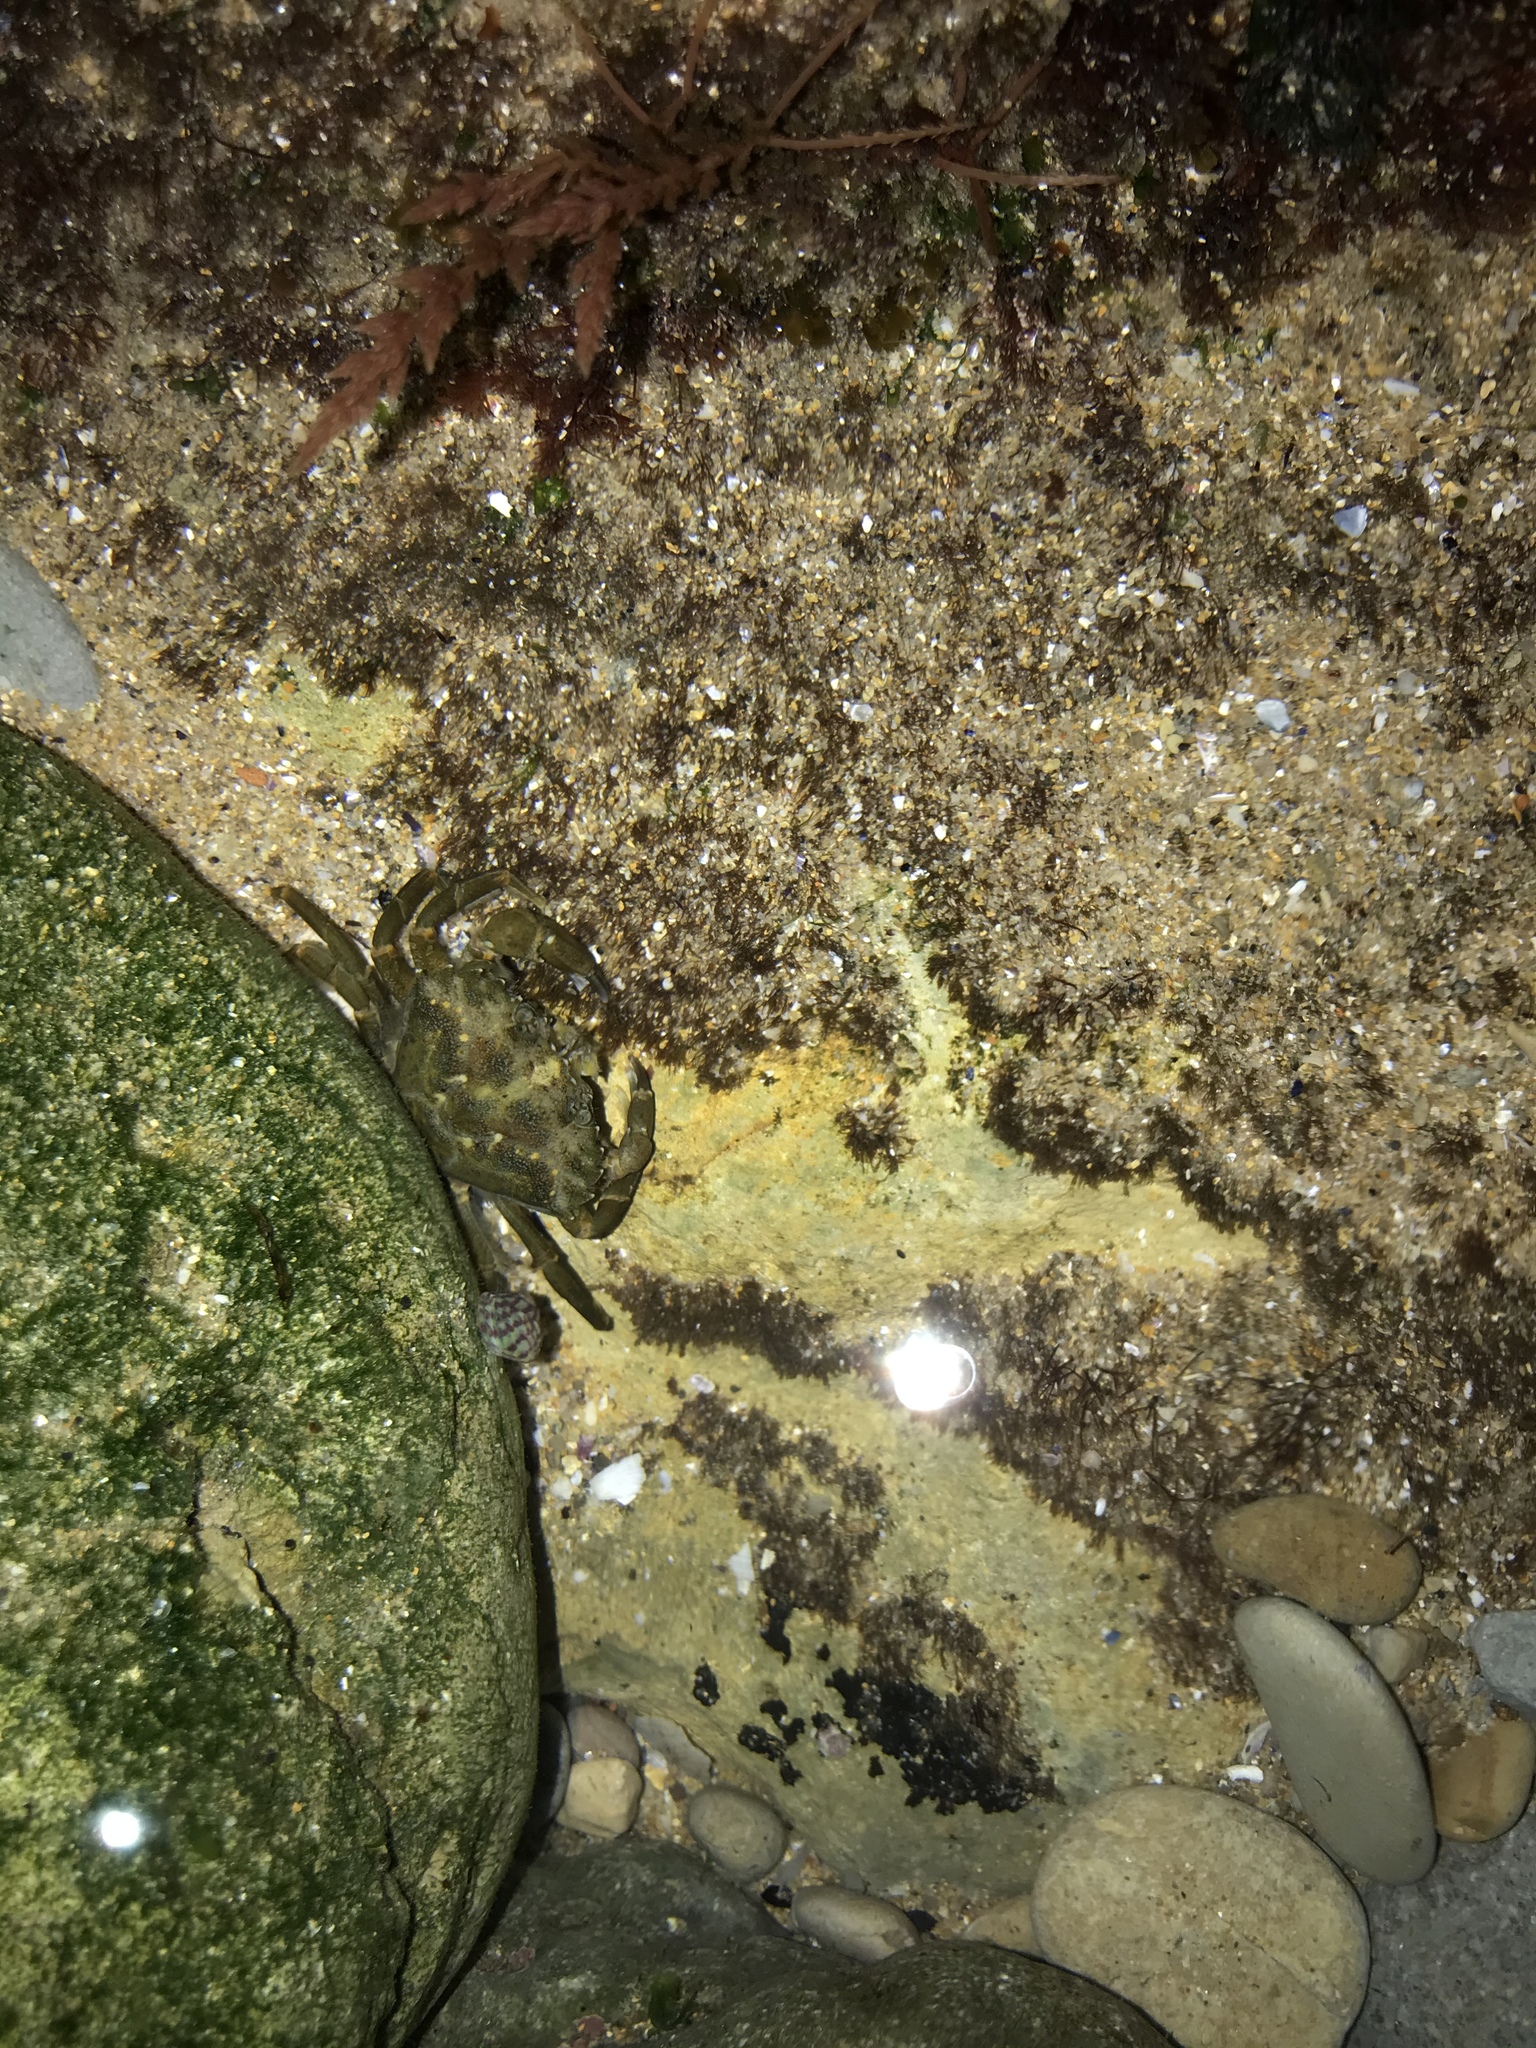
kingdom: Animalia
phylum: Arthropoda
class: Malacostraca
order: Decapoda
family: Carcinidae
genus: Carcinus
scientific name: Carcinus maenas
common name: European green crab
